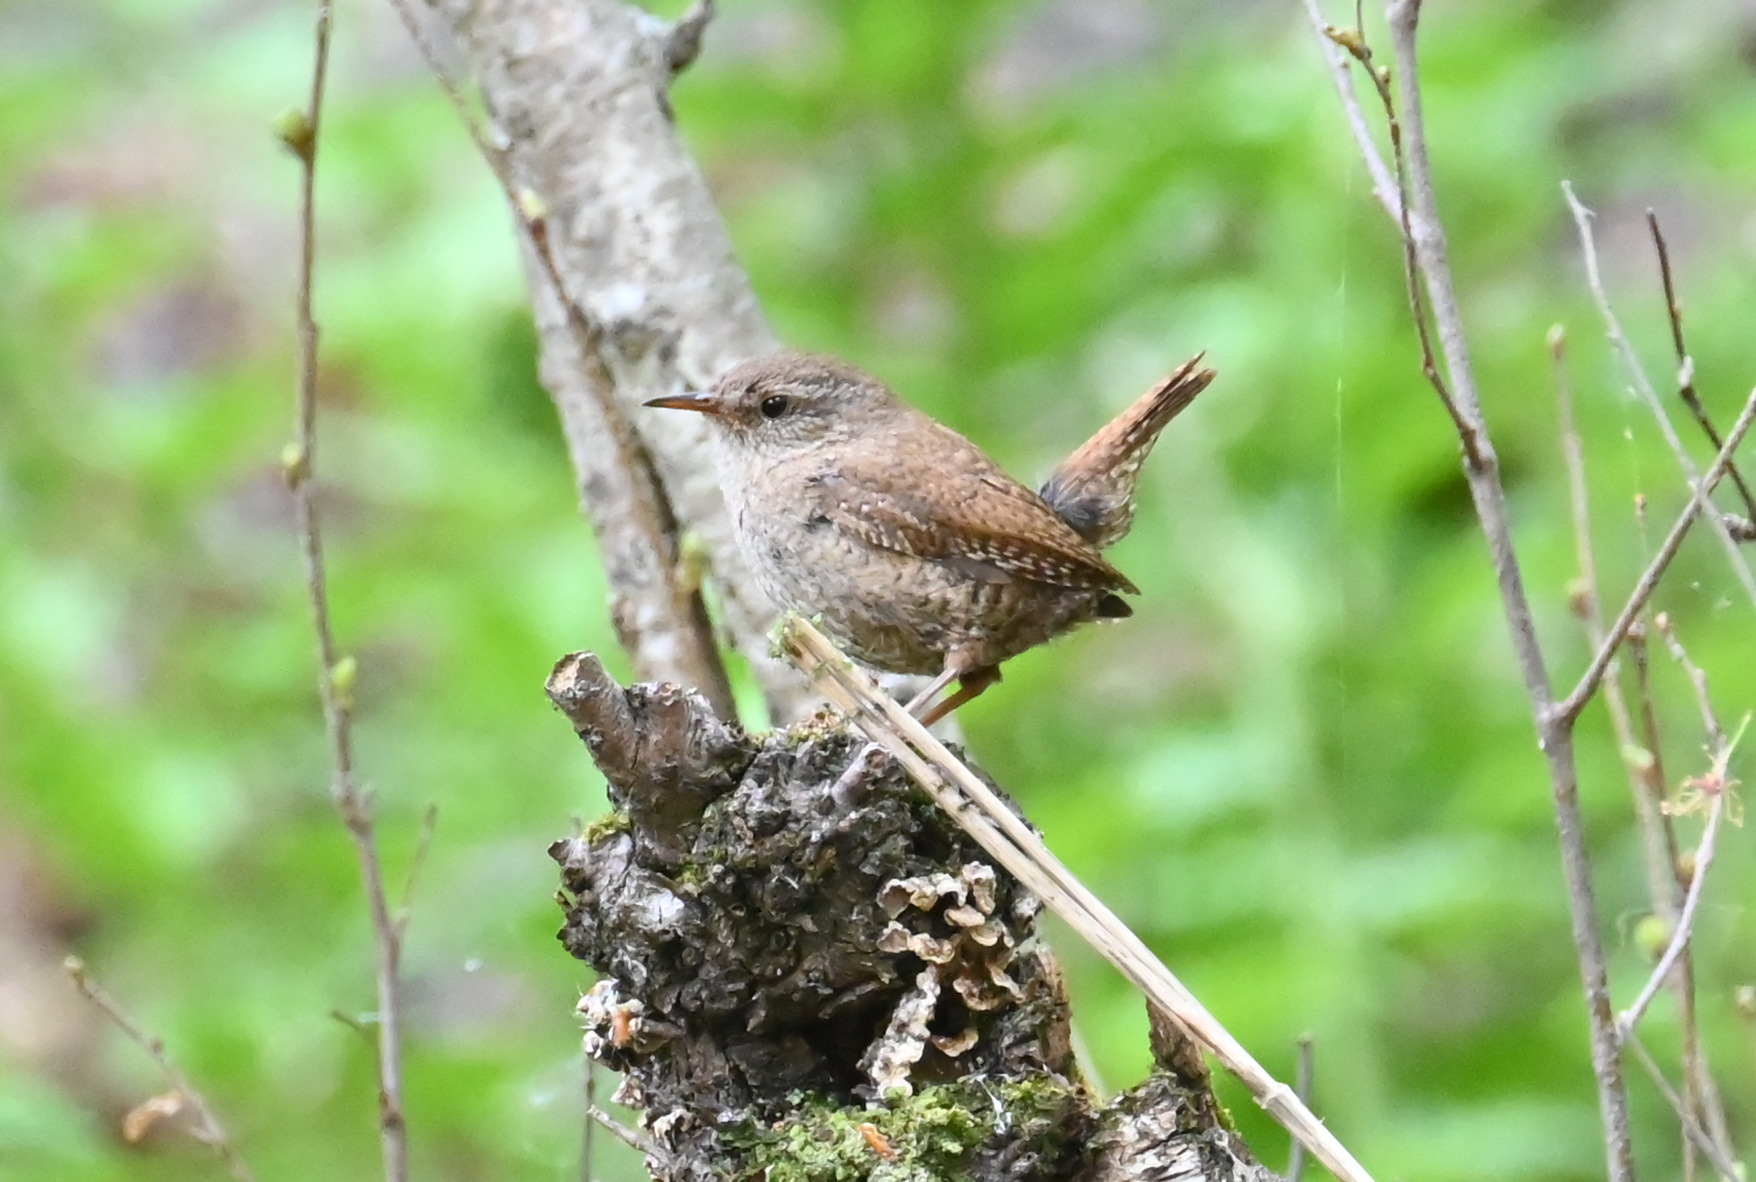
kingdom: Animalia
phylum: Chordata
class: Aves
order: Passeriformes
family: Troglodytidae
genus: Troglodytes
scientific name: Troglodytes troglodytes
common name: Eurasian wren
